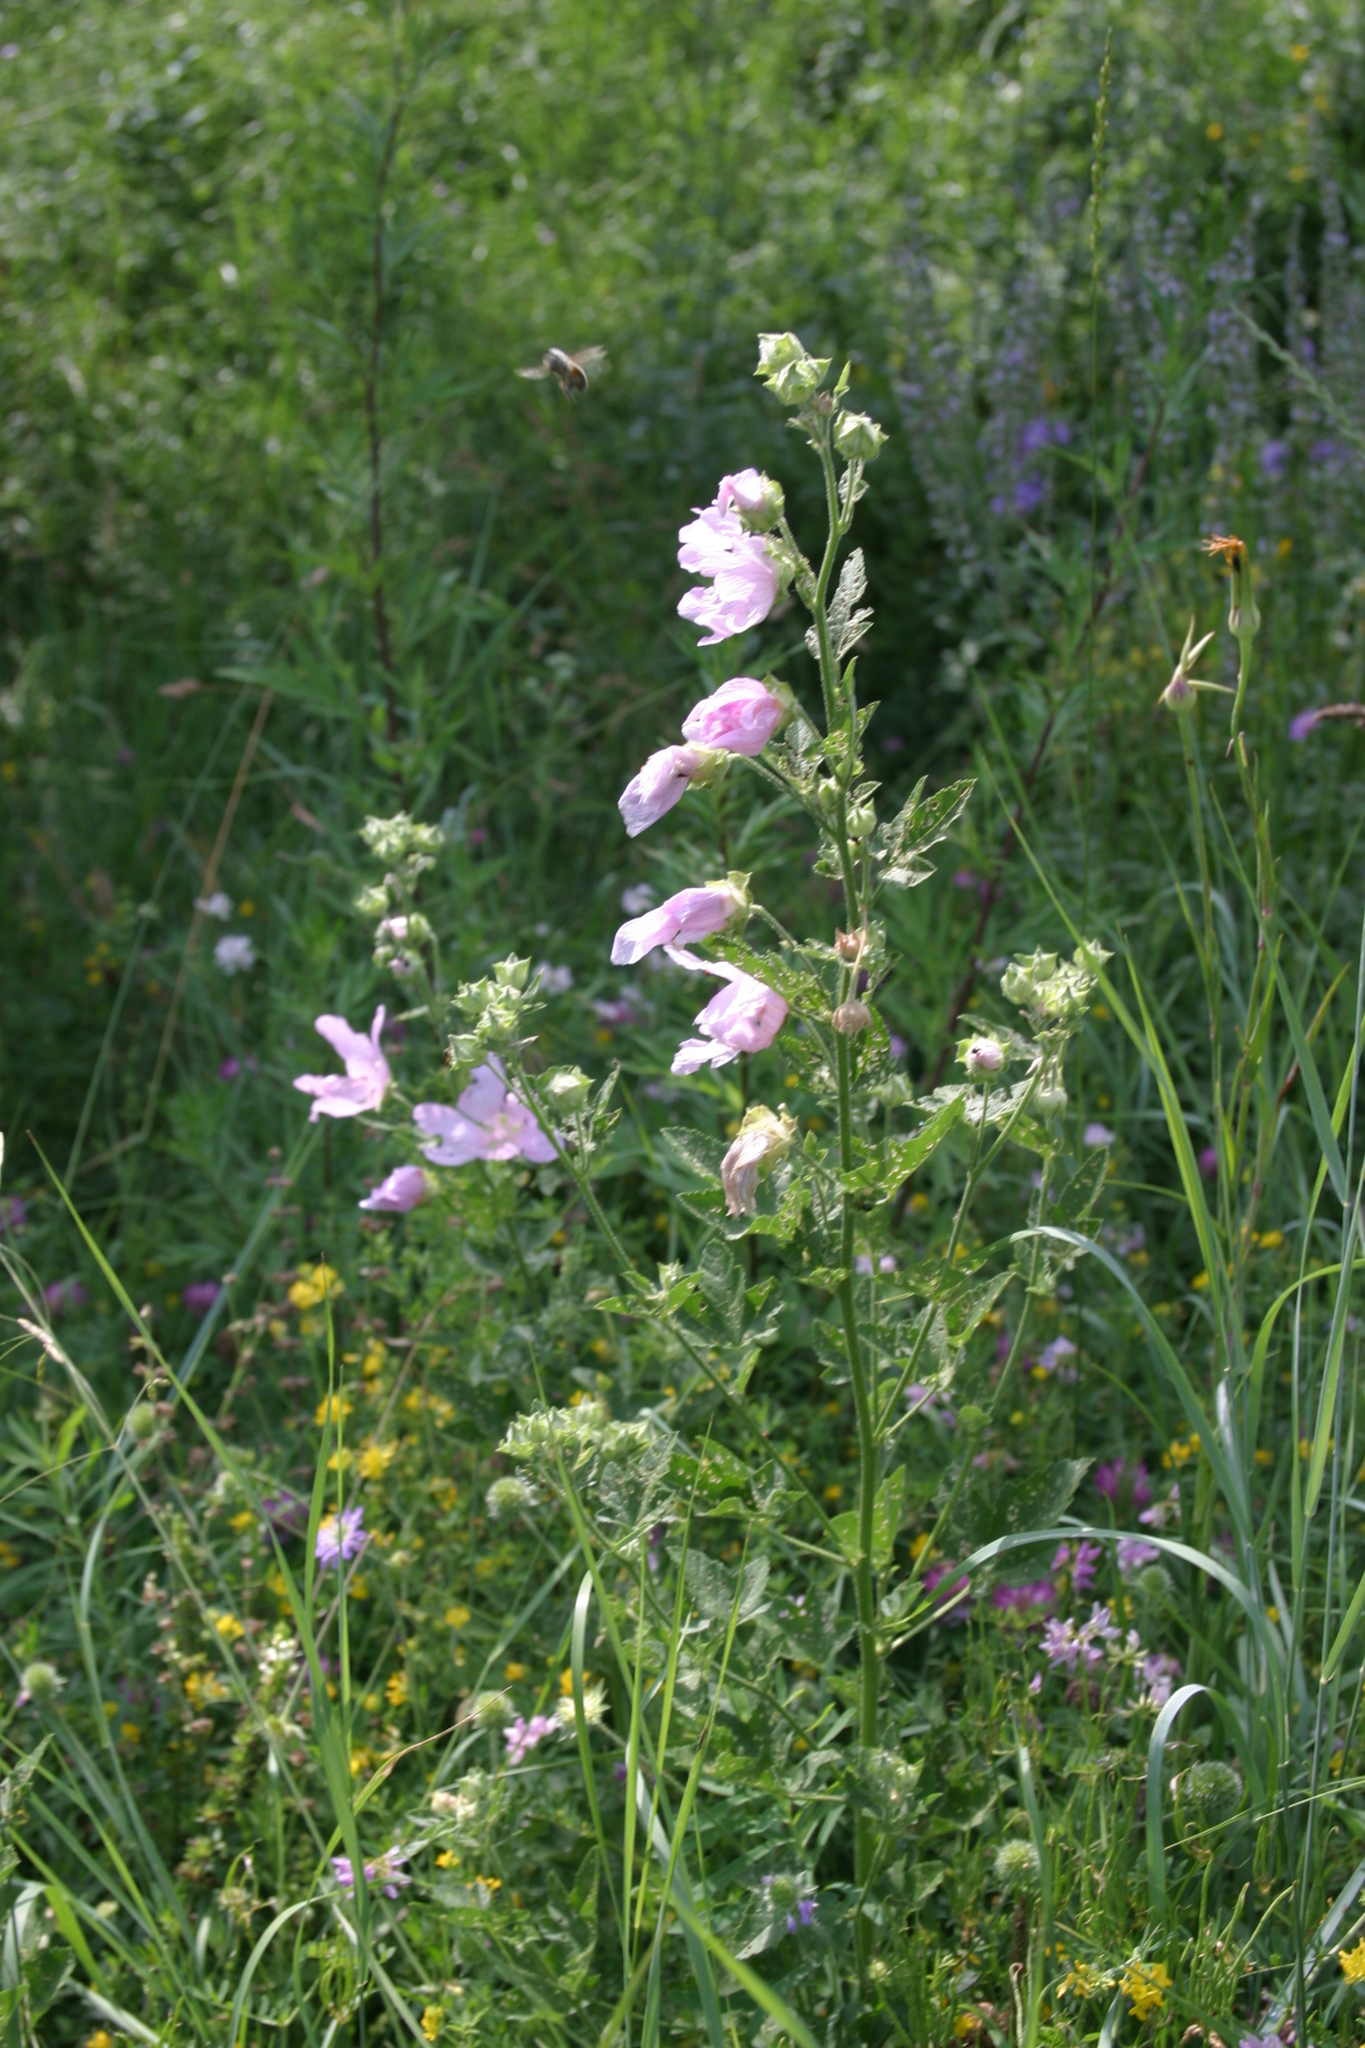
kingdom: Plantae
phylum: Tracheophyta
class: Magnoliopsida
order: Malvales
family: Malvaceae
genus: Malva
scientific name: Malva thuringiaca
